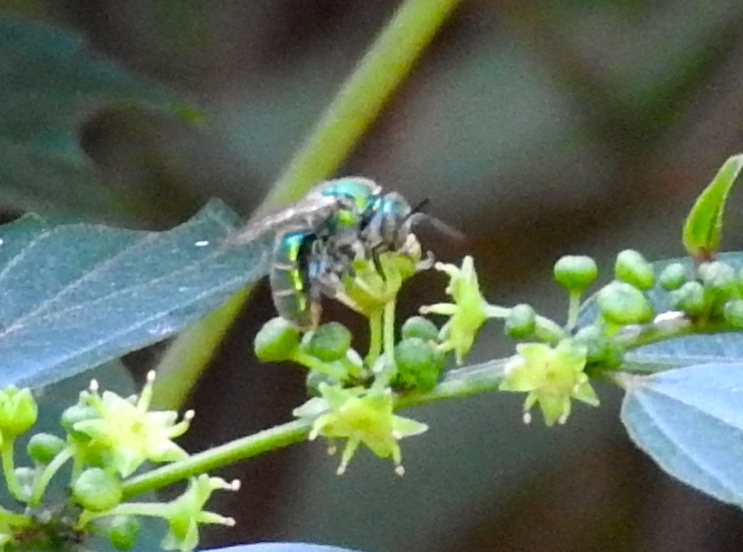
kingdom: Animalia
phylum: Arthropoda
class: Insecta
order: Hymenoptera
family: Halictidae
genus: Augochloropsis
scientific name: Augochloropsis
